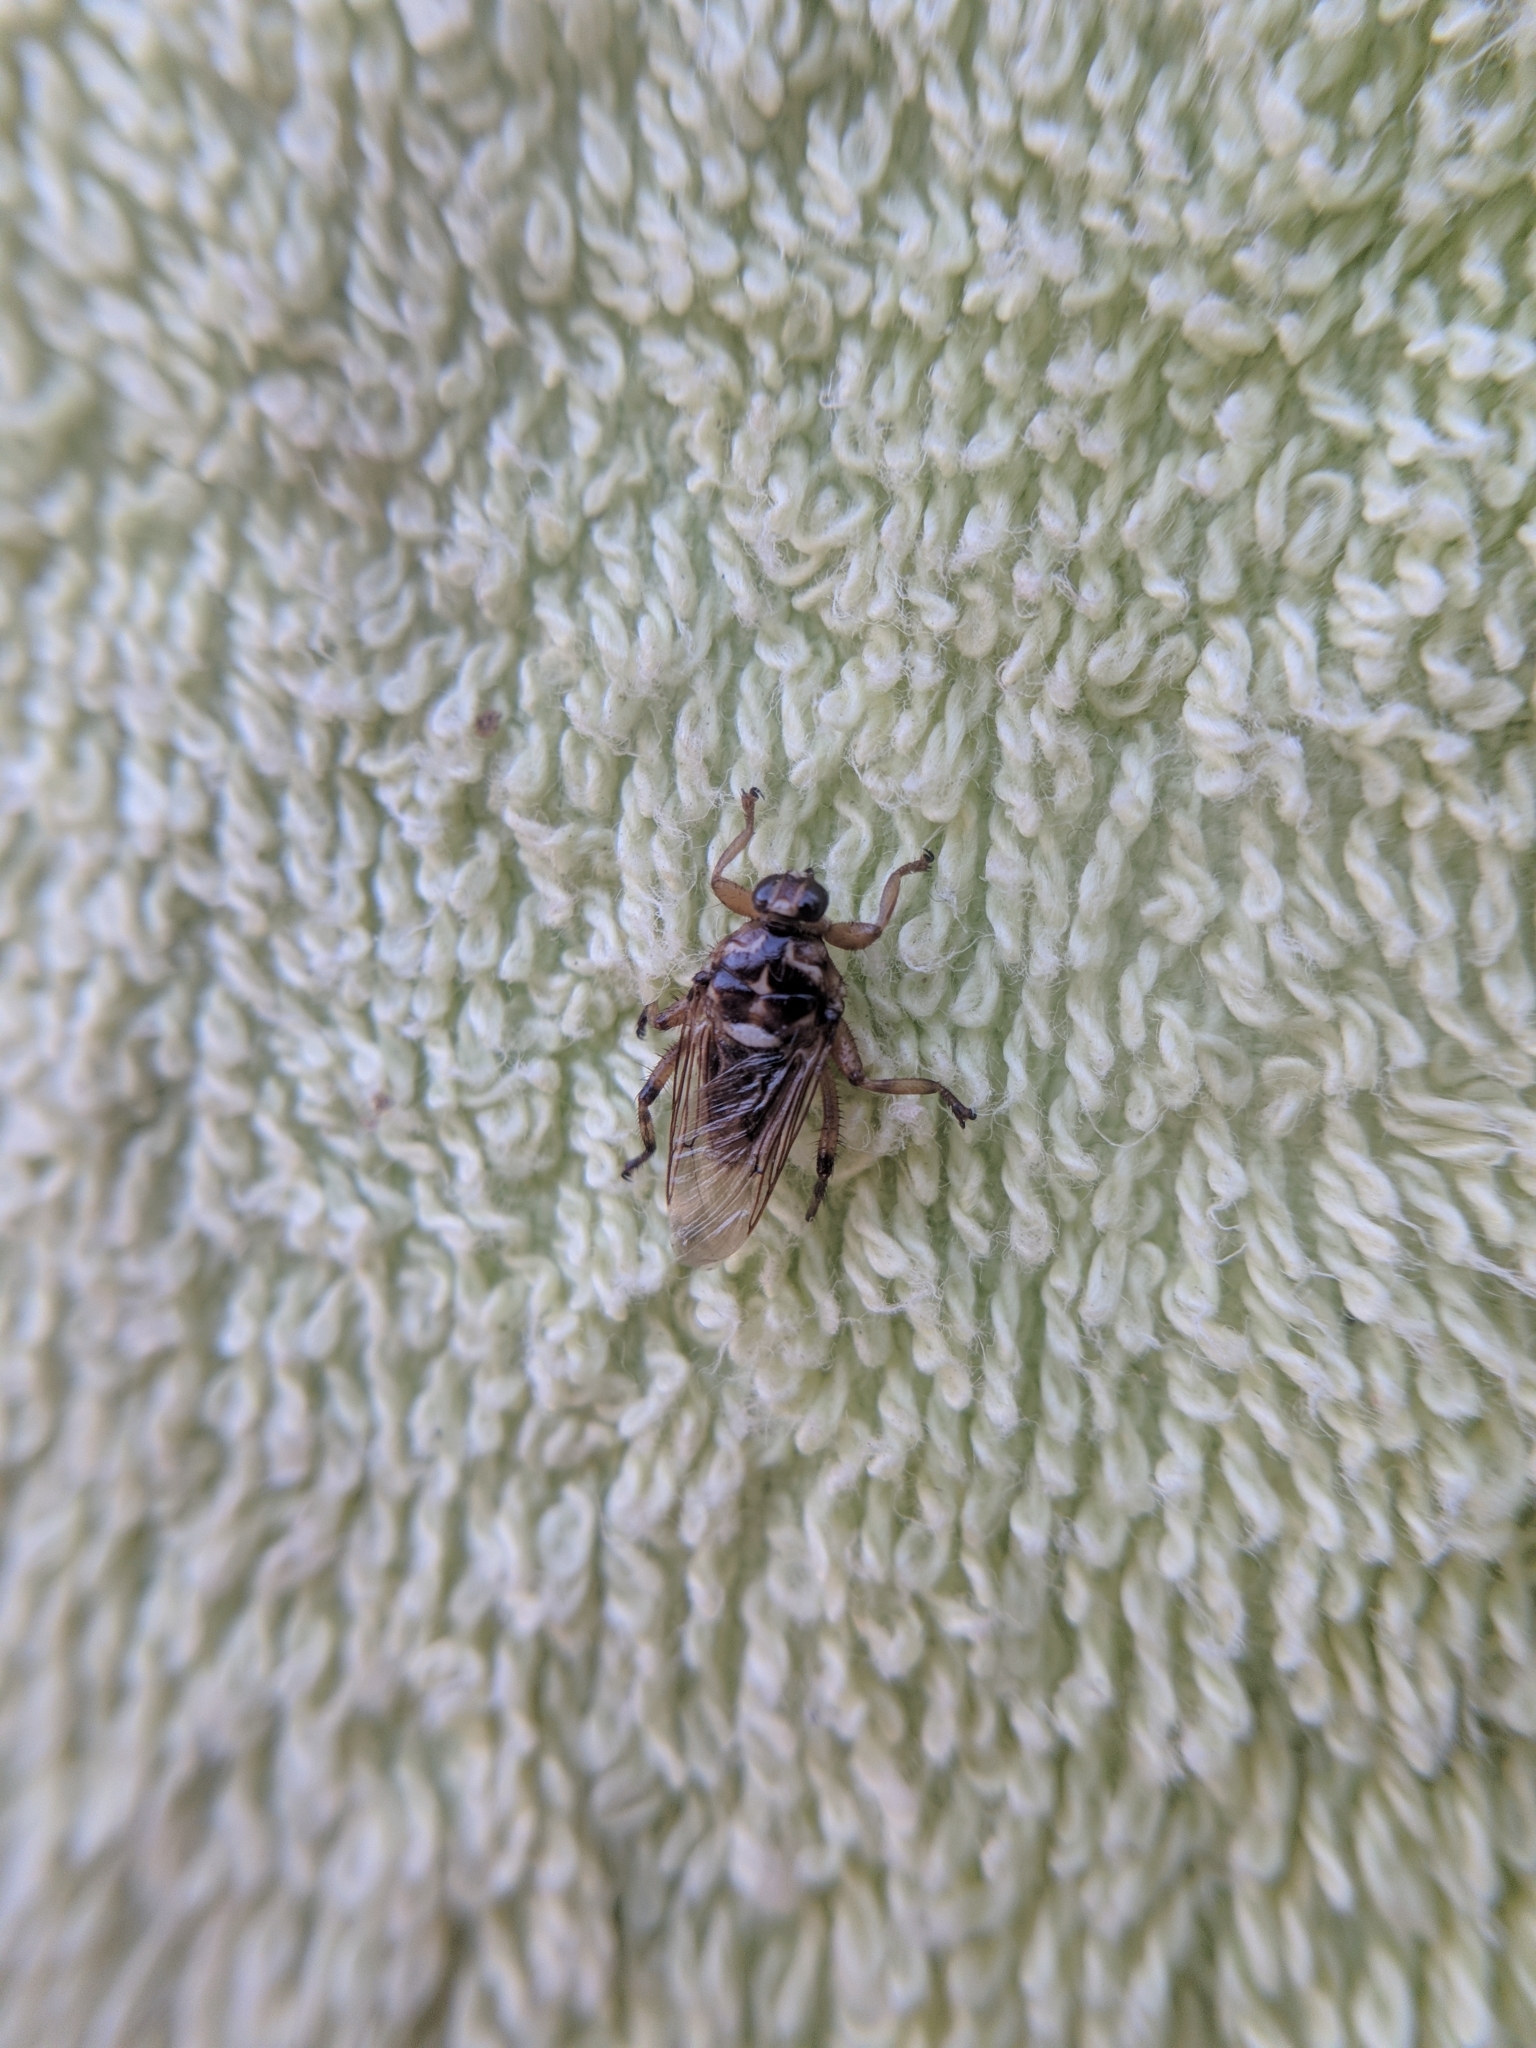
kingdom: Animalia
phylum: Arthropoda
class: Insecta
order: Diptera
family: Hippoboscidae
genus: Hippobosca
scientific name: Hippobosca equina
